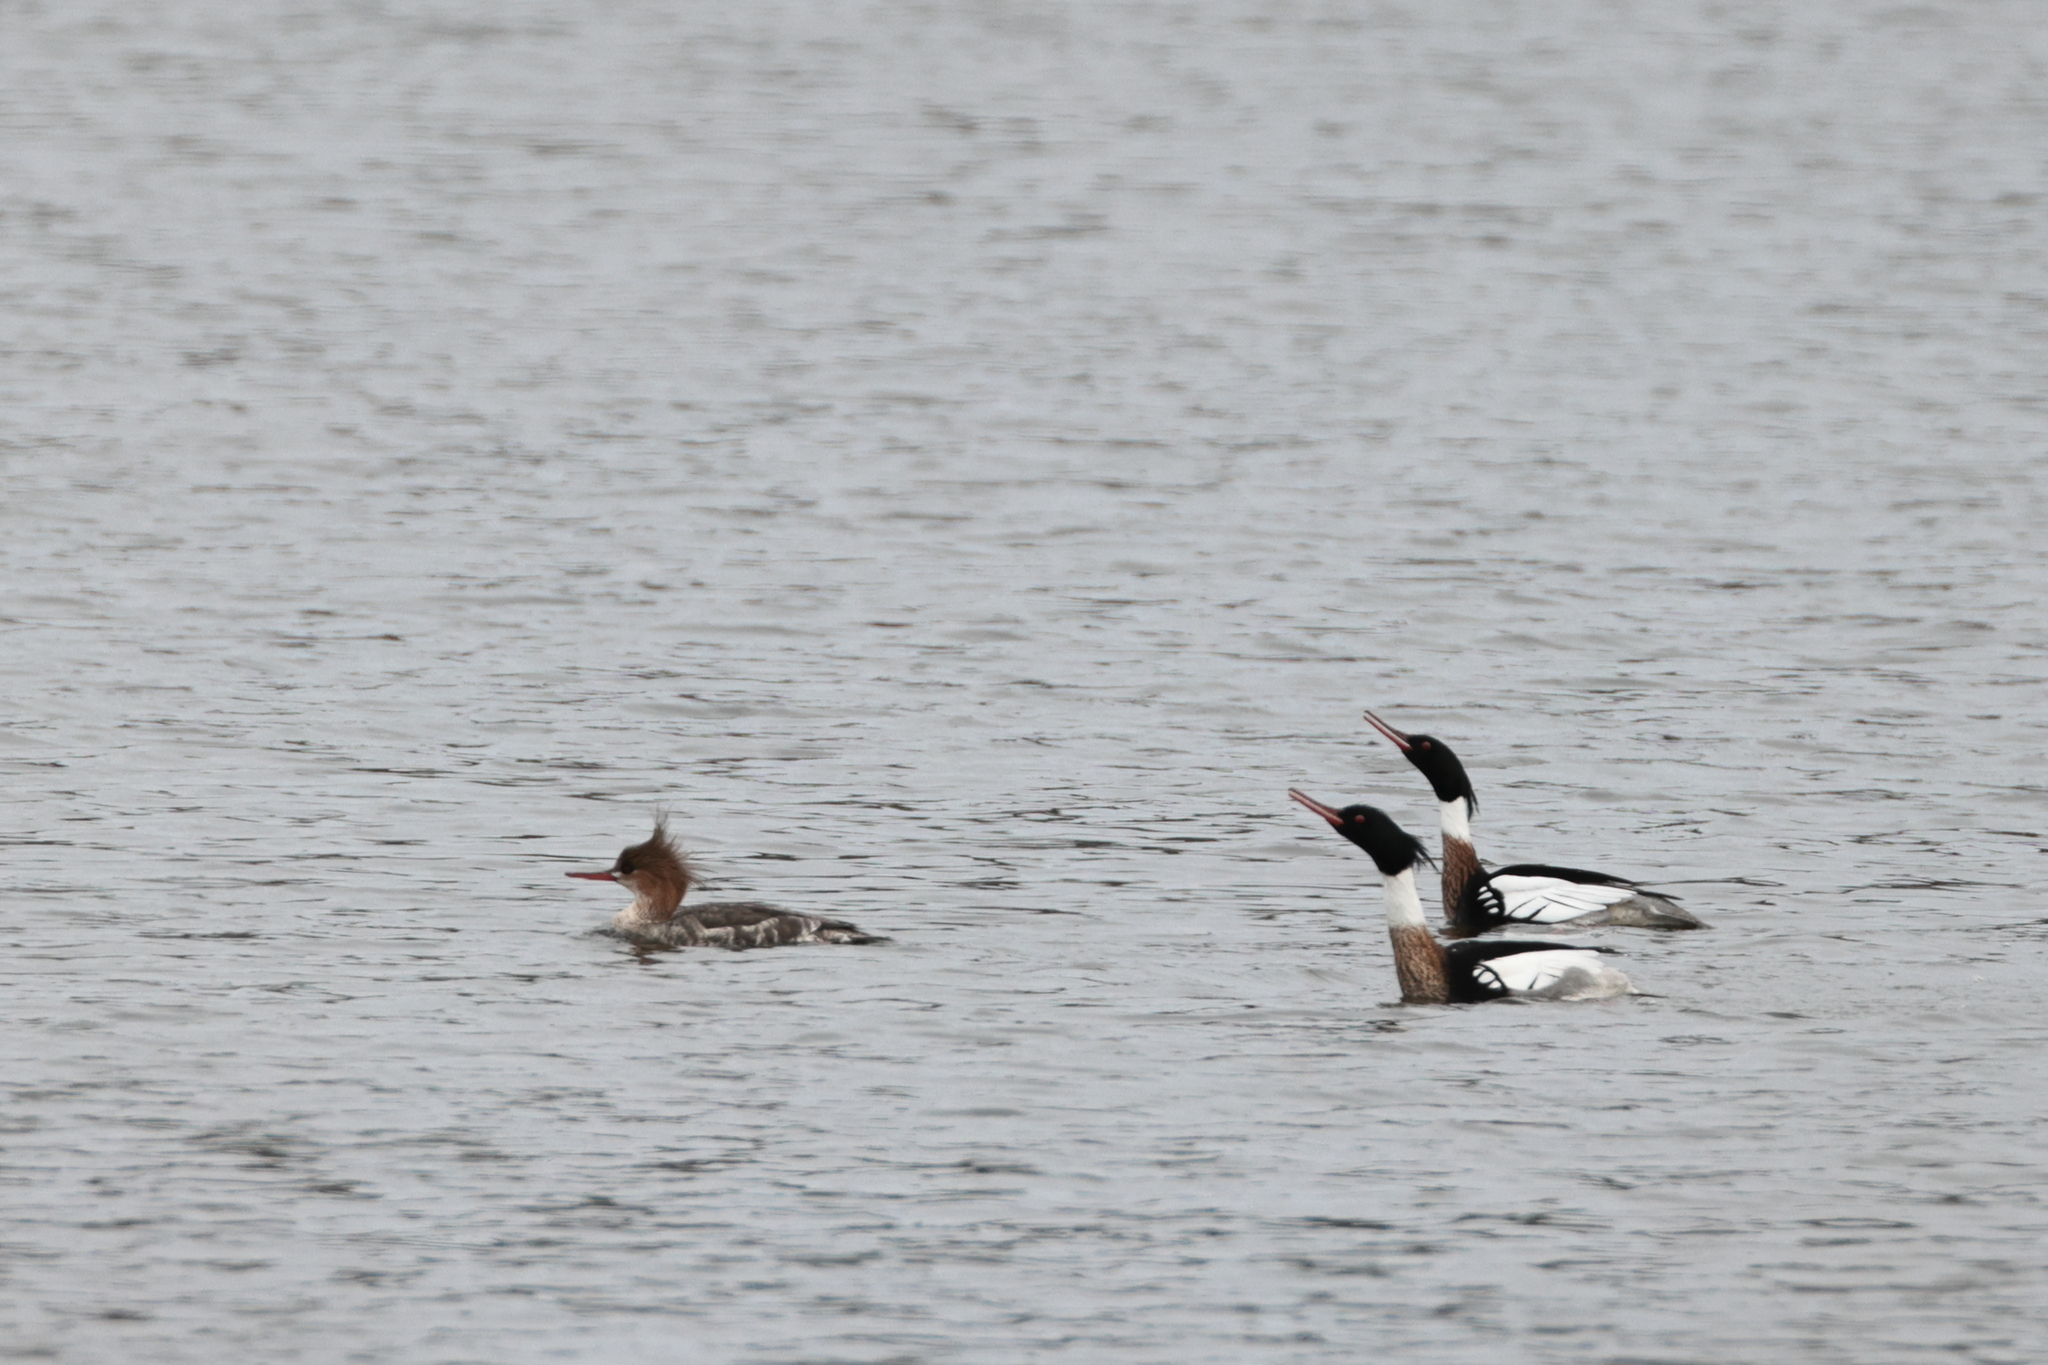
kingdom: Animalia
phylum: Chordata
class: Aves
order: Anseriformes
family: Anatidae
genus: Mergus
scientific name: Mergus serrator
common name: Red-breasted merganser
